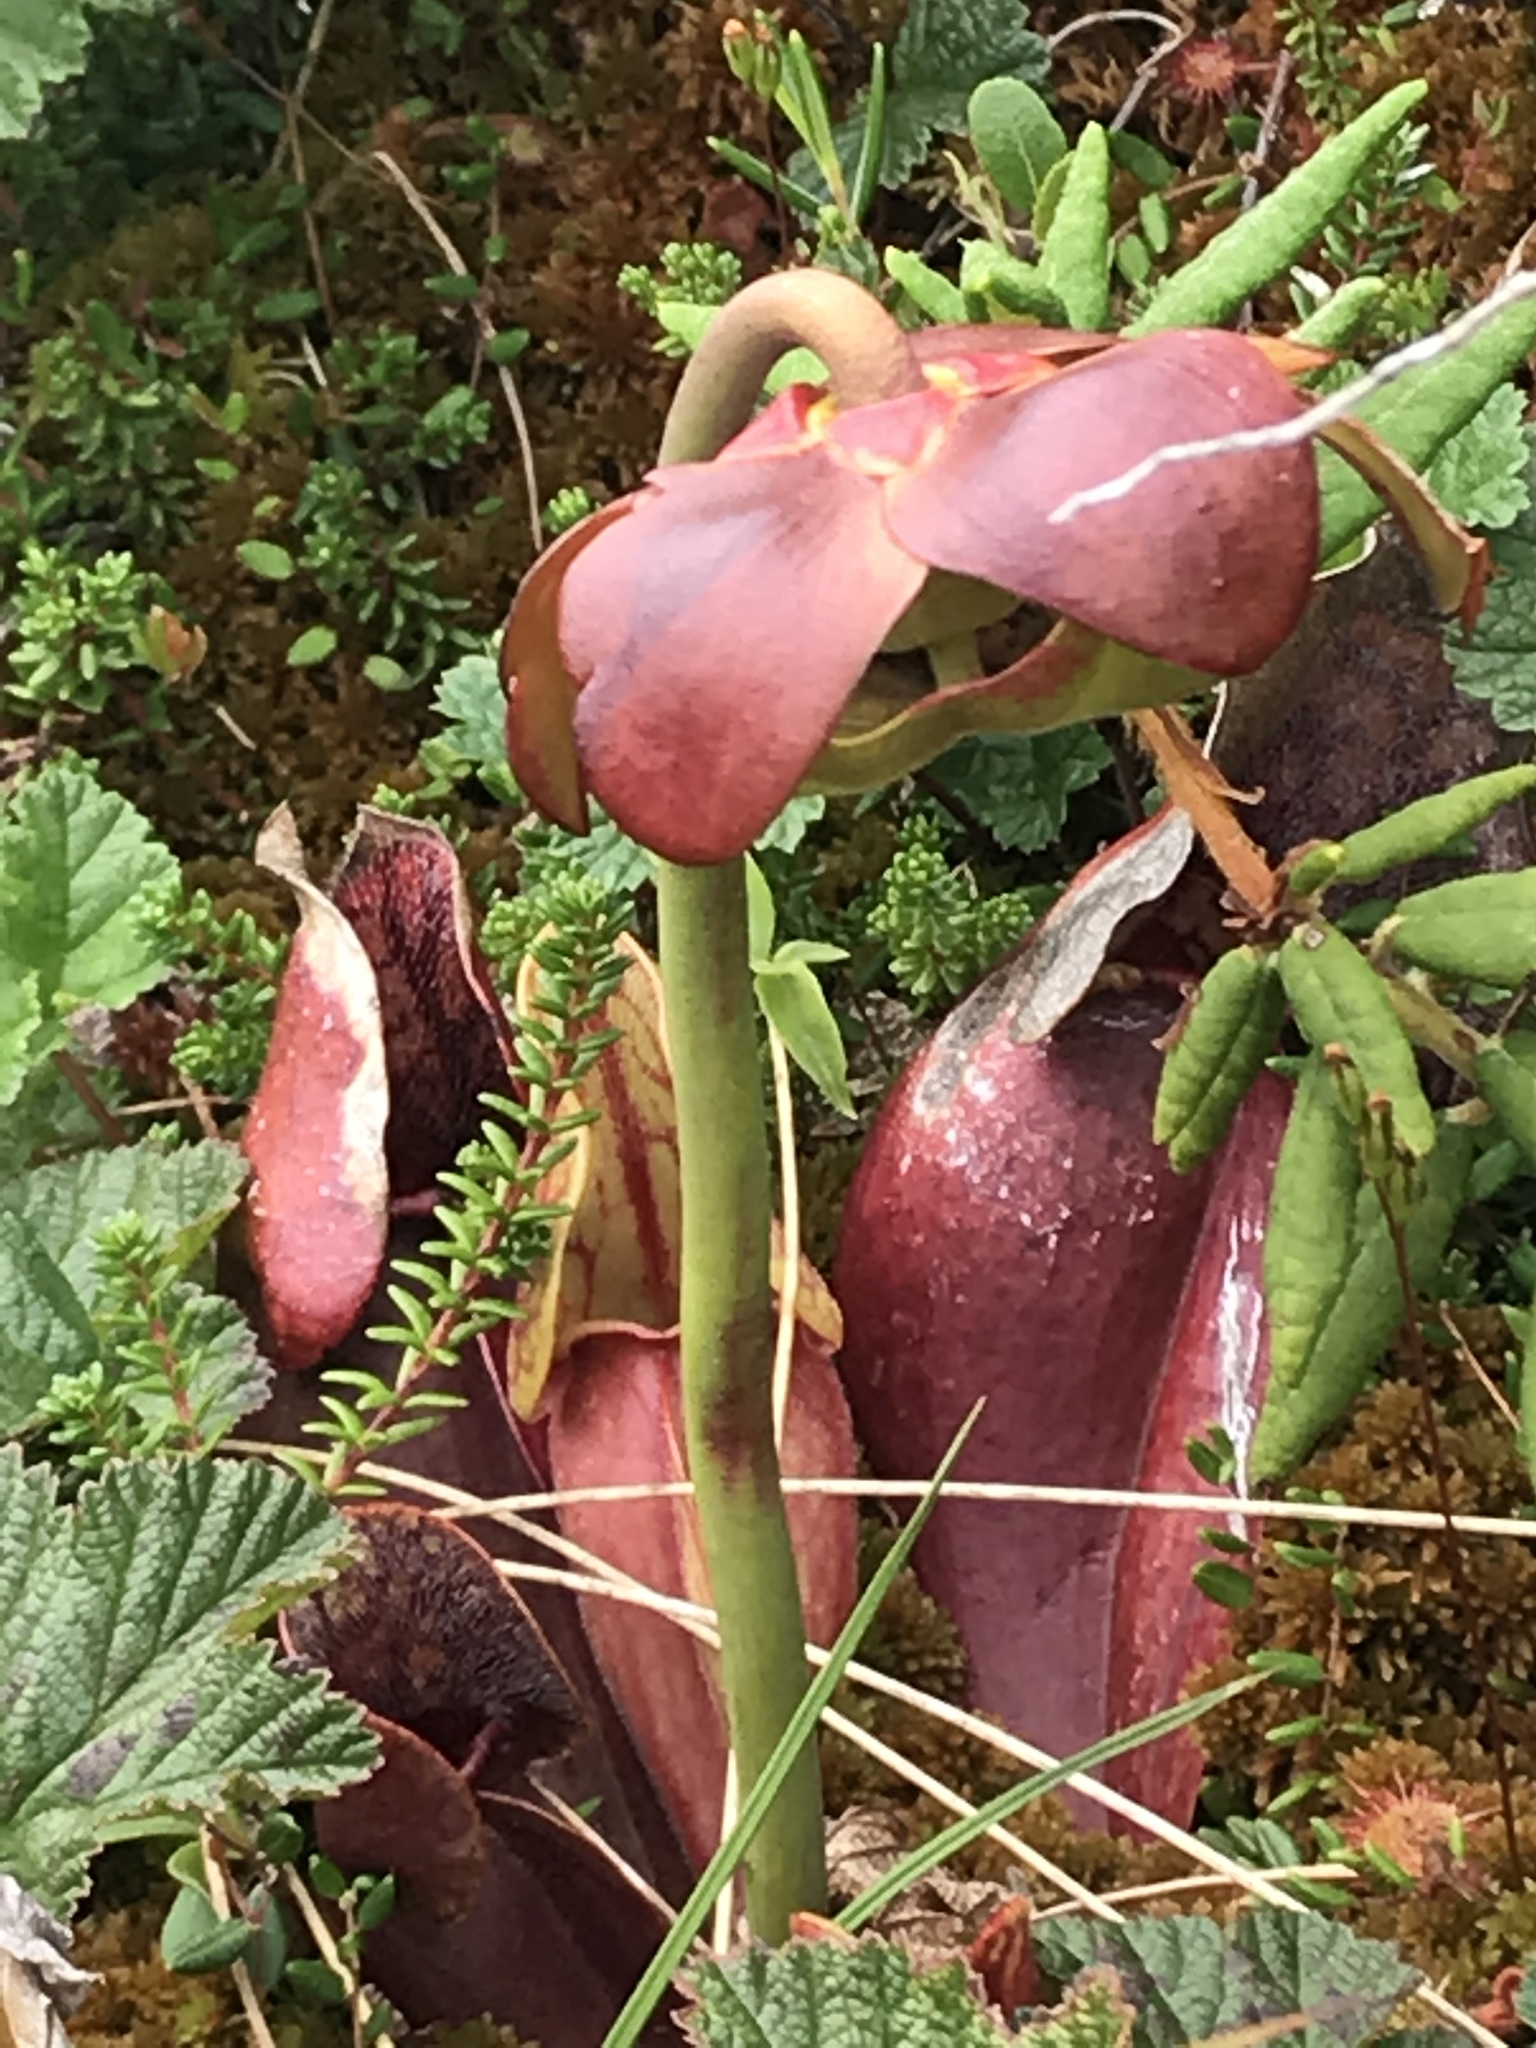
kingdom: Plantae
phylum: Tracheophyta
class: Magnoliopsida
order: Ericales
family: Sarraceniaceae
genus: Sarracenia
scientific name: Sarracenia purpurea
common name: Pitcherplant
